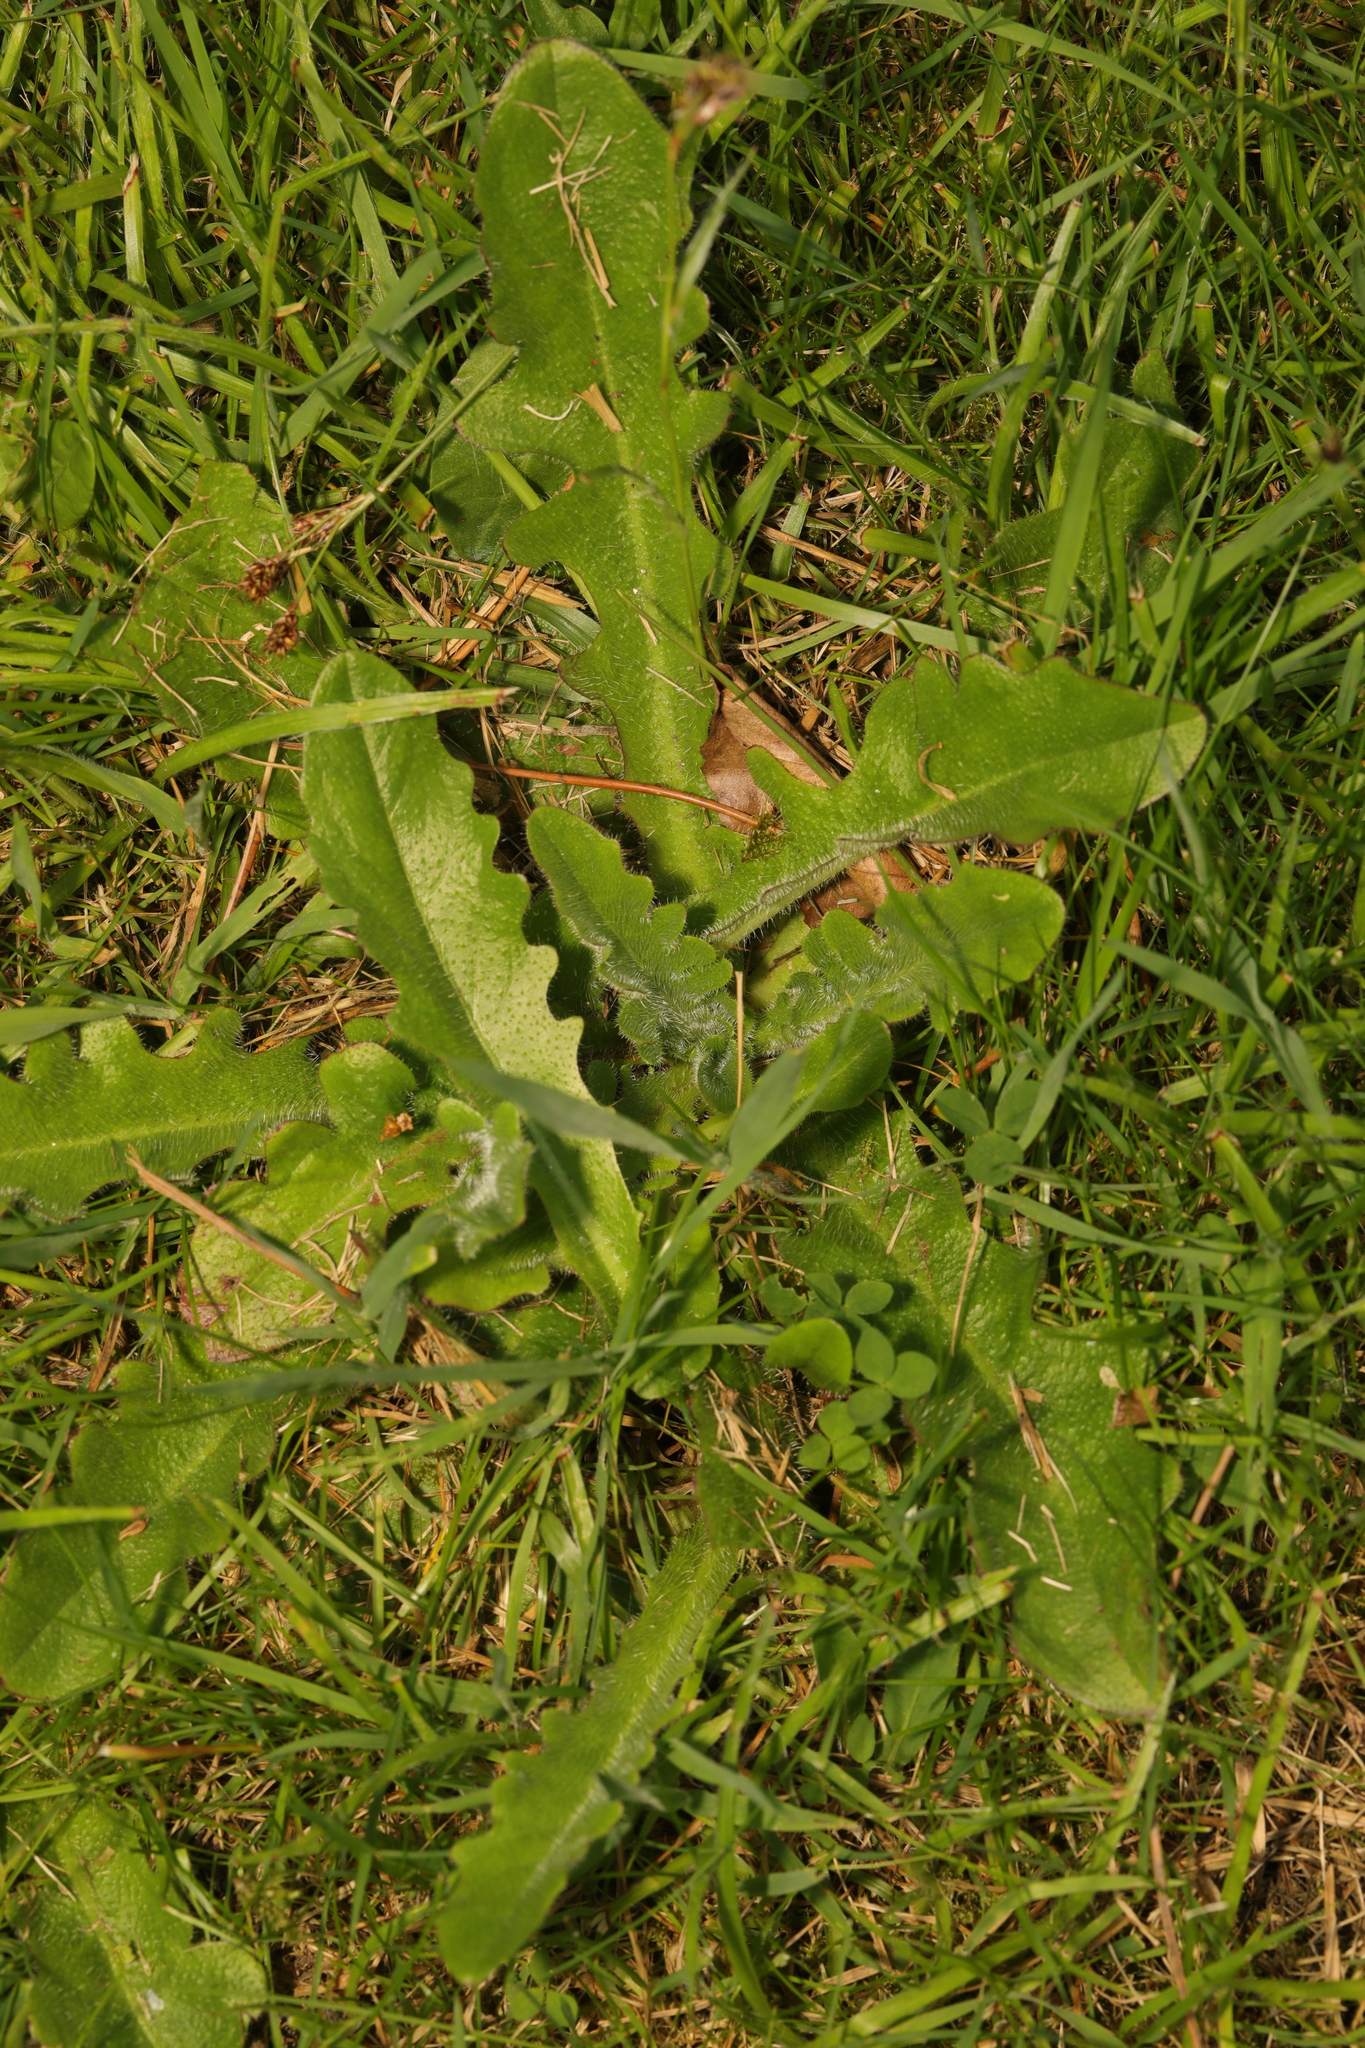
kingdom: Plantae
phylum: Tracheophyta
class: Magnoliopsida
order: Asterales
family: Asteraceae
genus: Hypochaeris
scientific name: Hypochaeris radicata
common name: Flatweed
